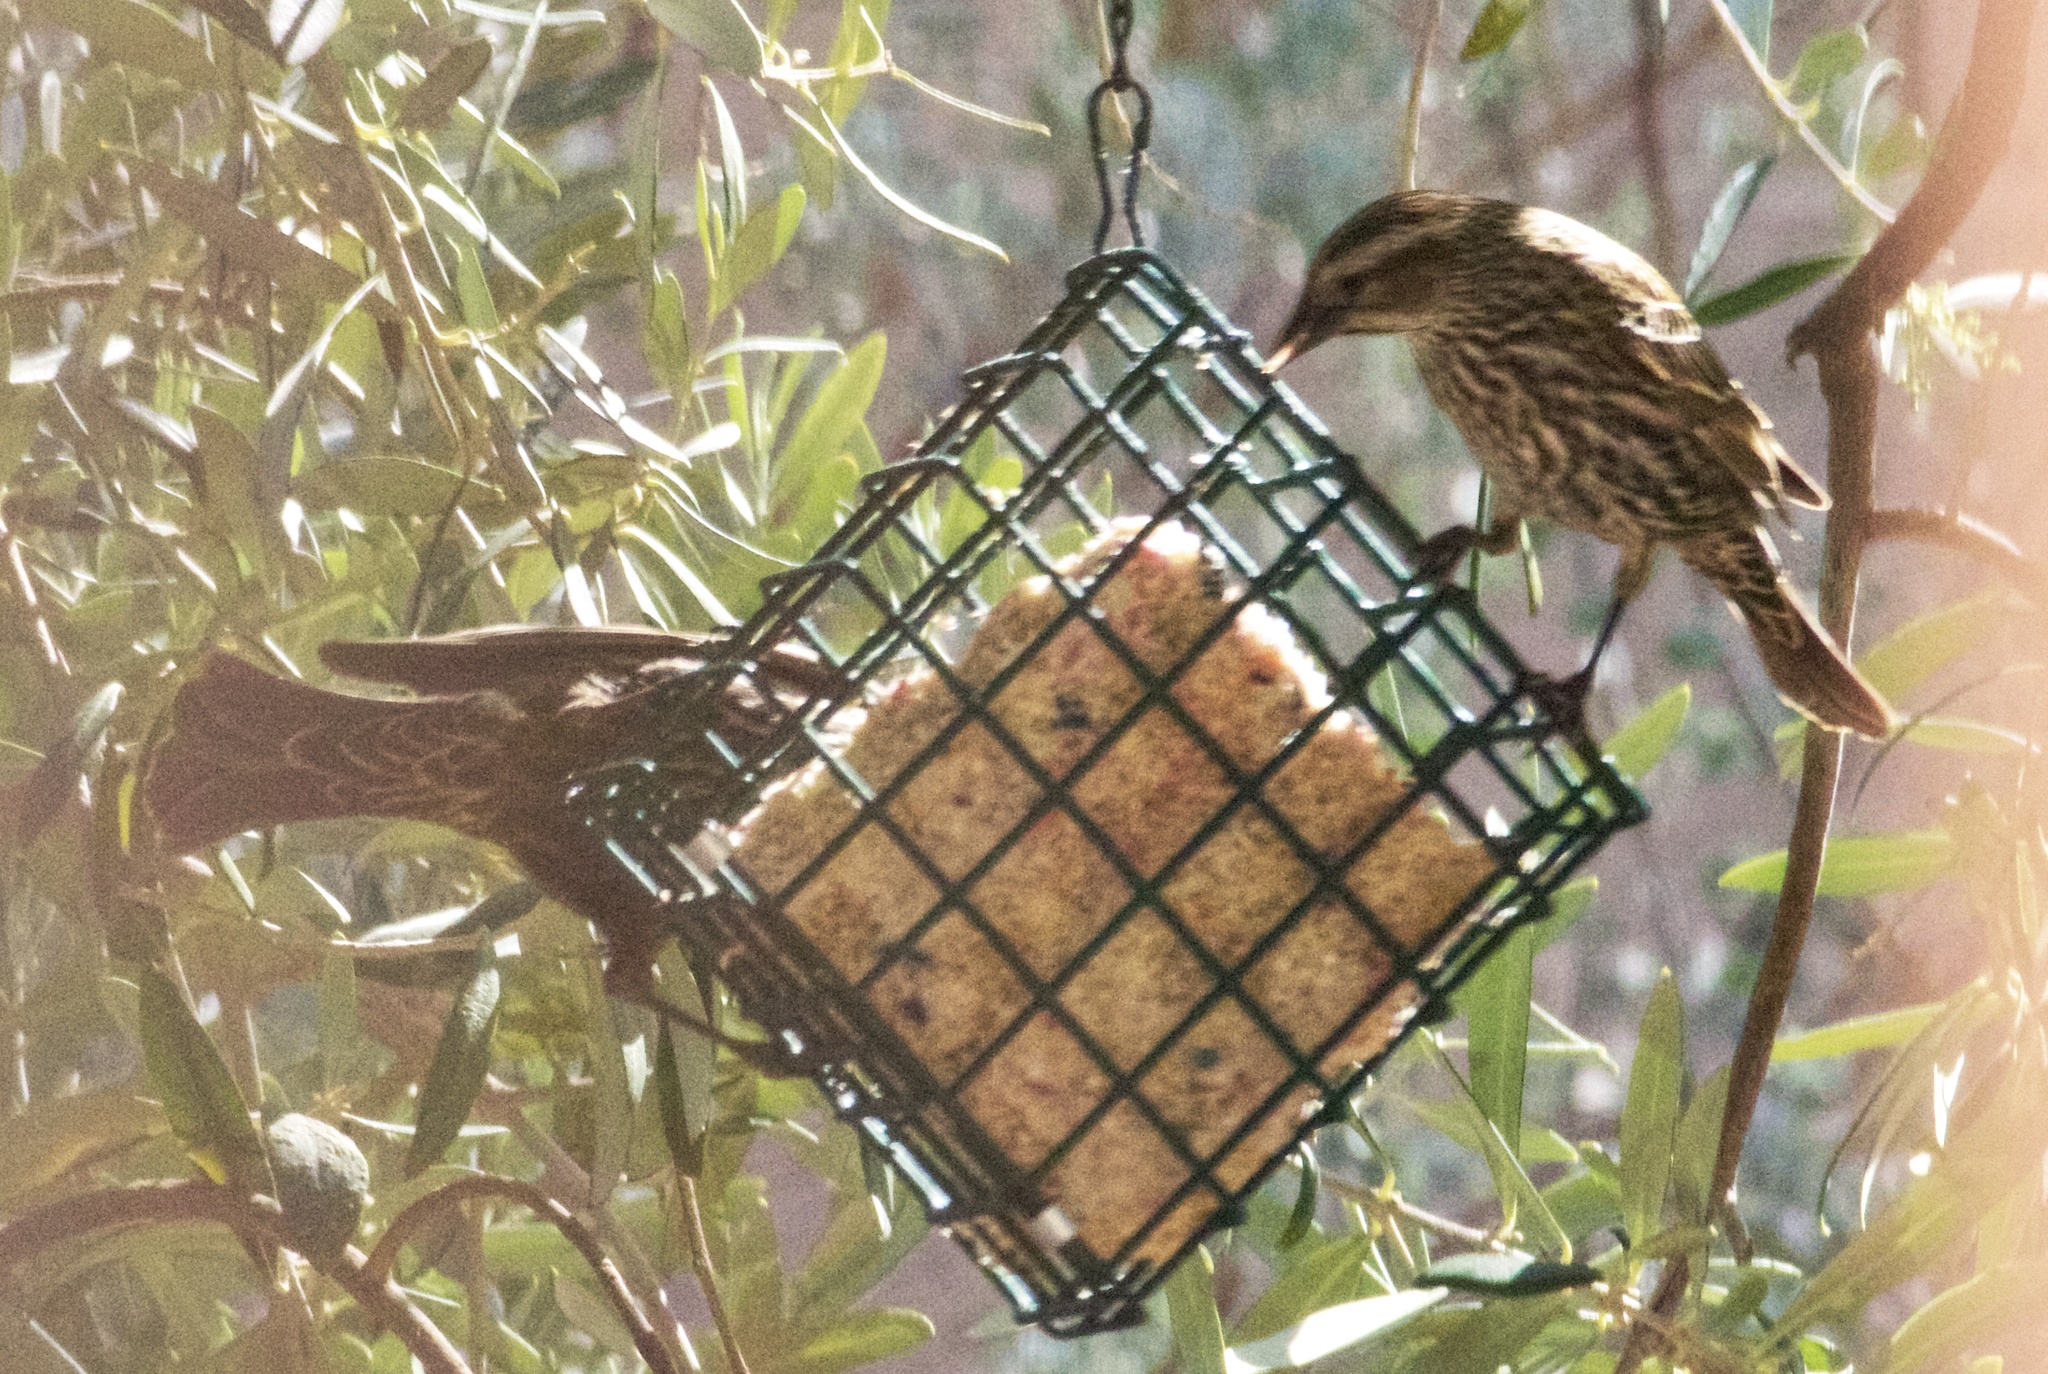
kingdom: Animalia
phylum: Chordata
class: Aves
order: Passeriformes
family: Icteridae
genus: Agelaius
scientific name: Agelaius phoeniceus
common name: Red-winged blackbird
